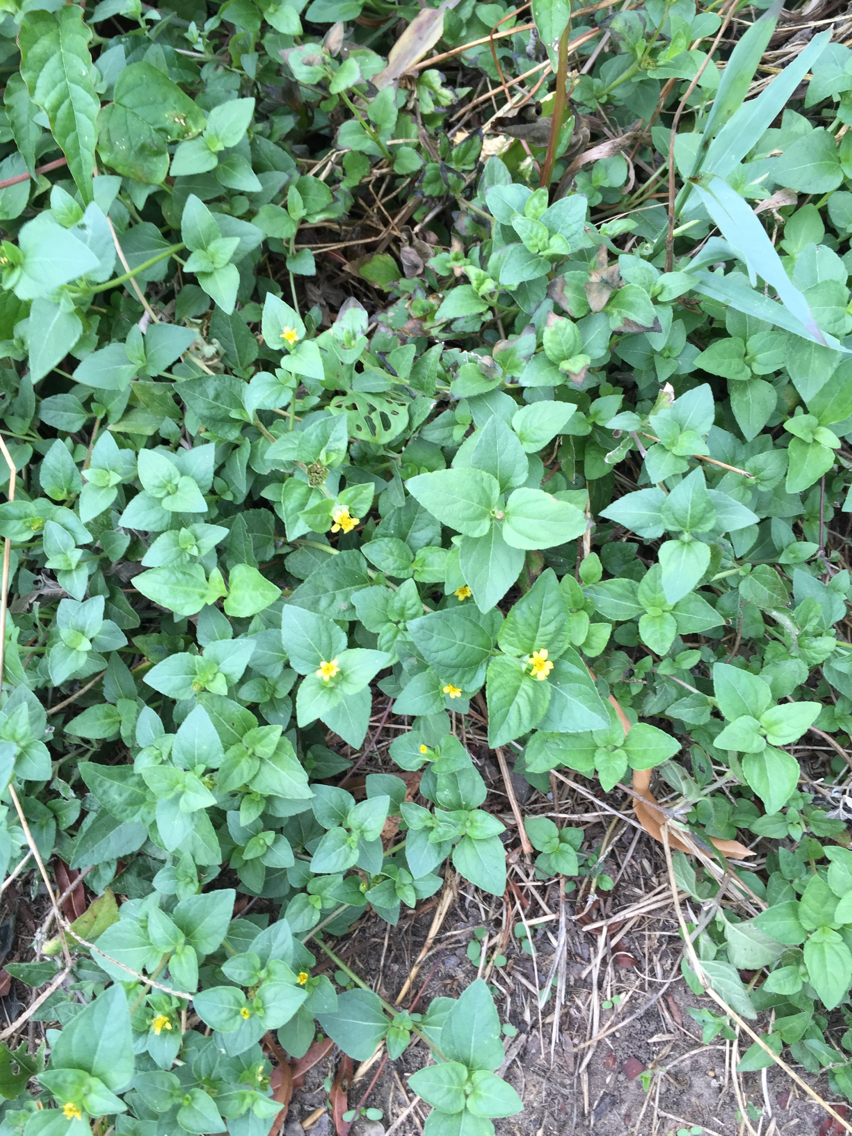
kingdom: Plantae
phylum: Tracheophyta
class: Magnoliopsida
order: Asterales
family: Asteraceae
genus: Calyptocarpus
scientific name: Calyptocarpus vialis
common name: Straggler daisy
